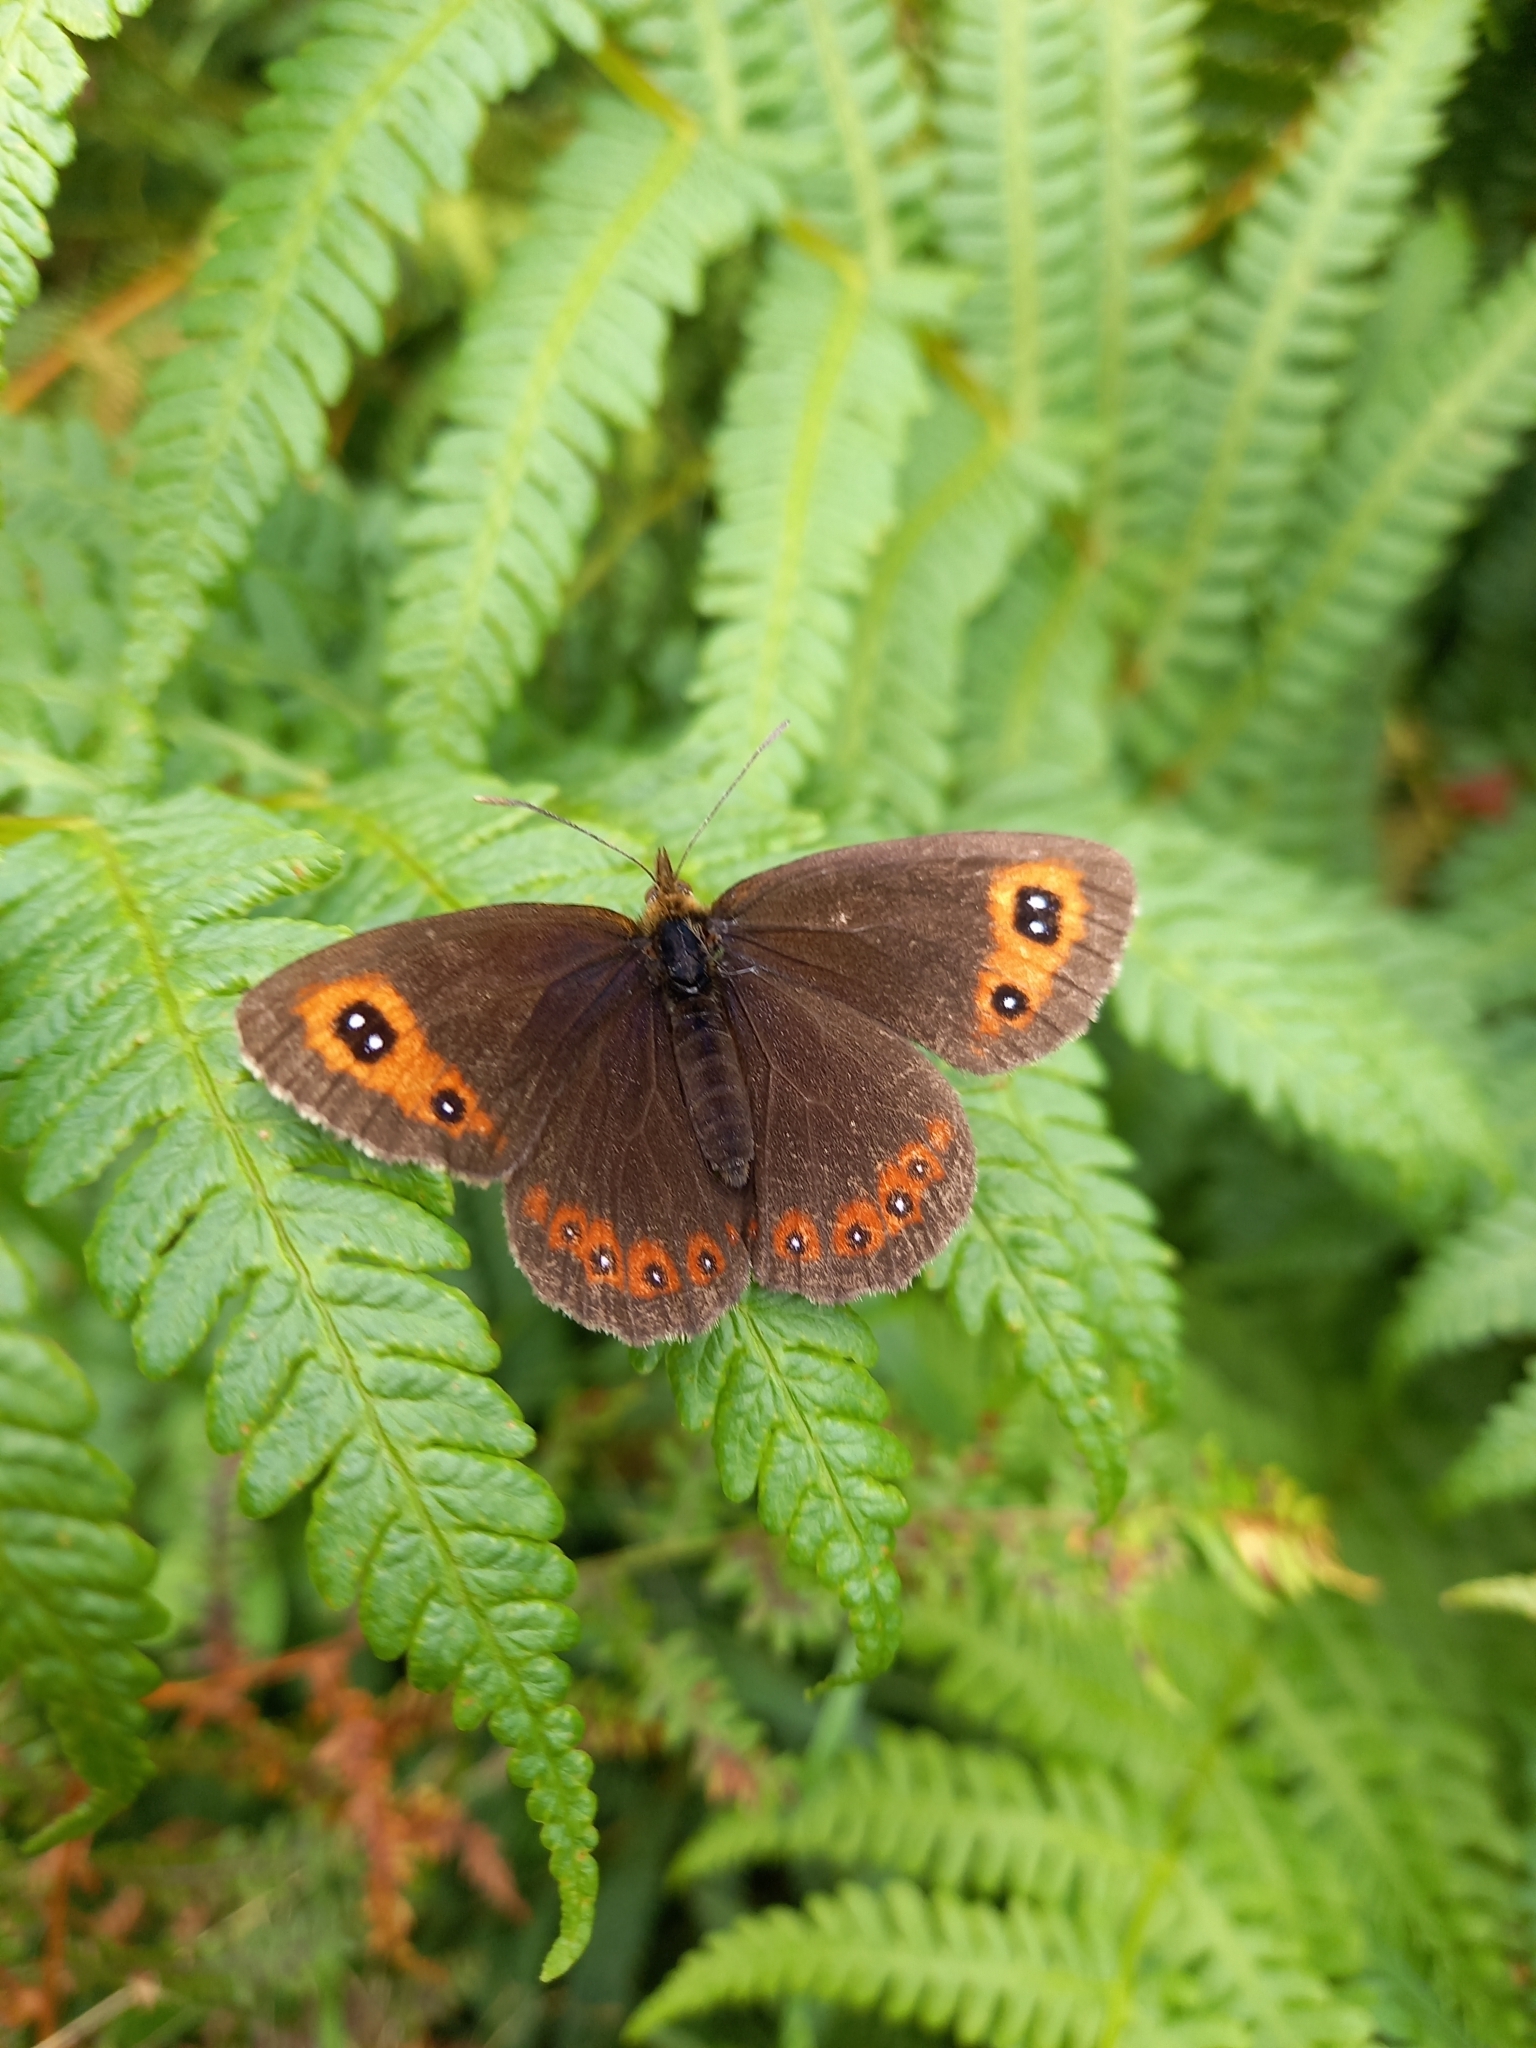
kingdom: Animalia
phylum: Arthropoda
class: Insecta
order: Lepidoptera
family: Nymphalidae
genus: Erebia
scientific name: Erebia aethiops
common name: Scotch argus
